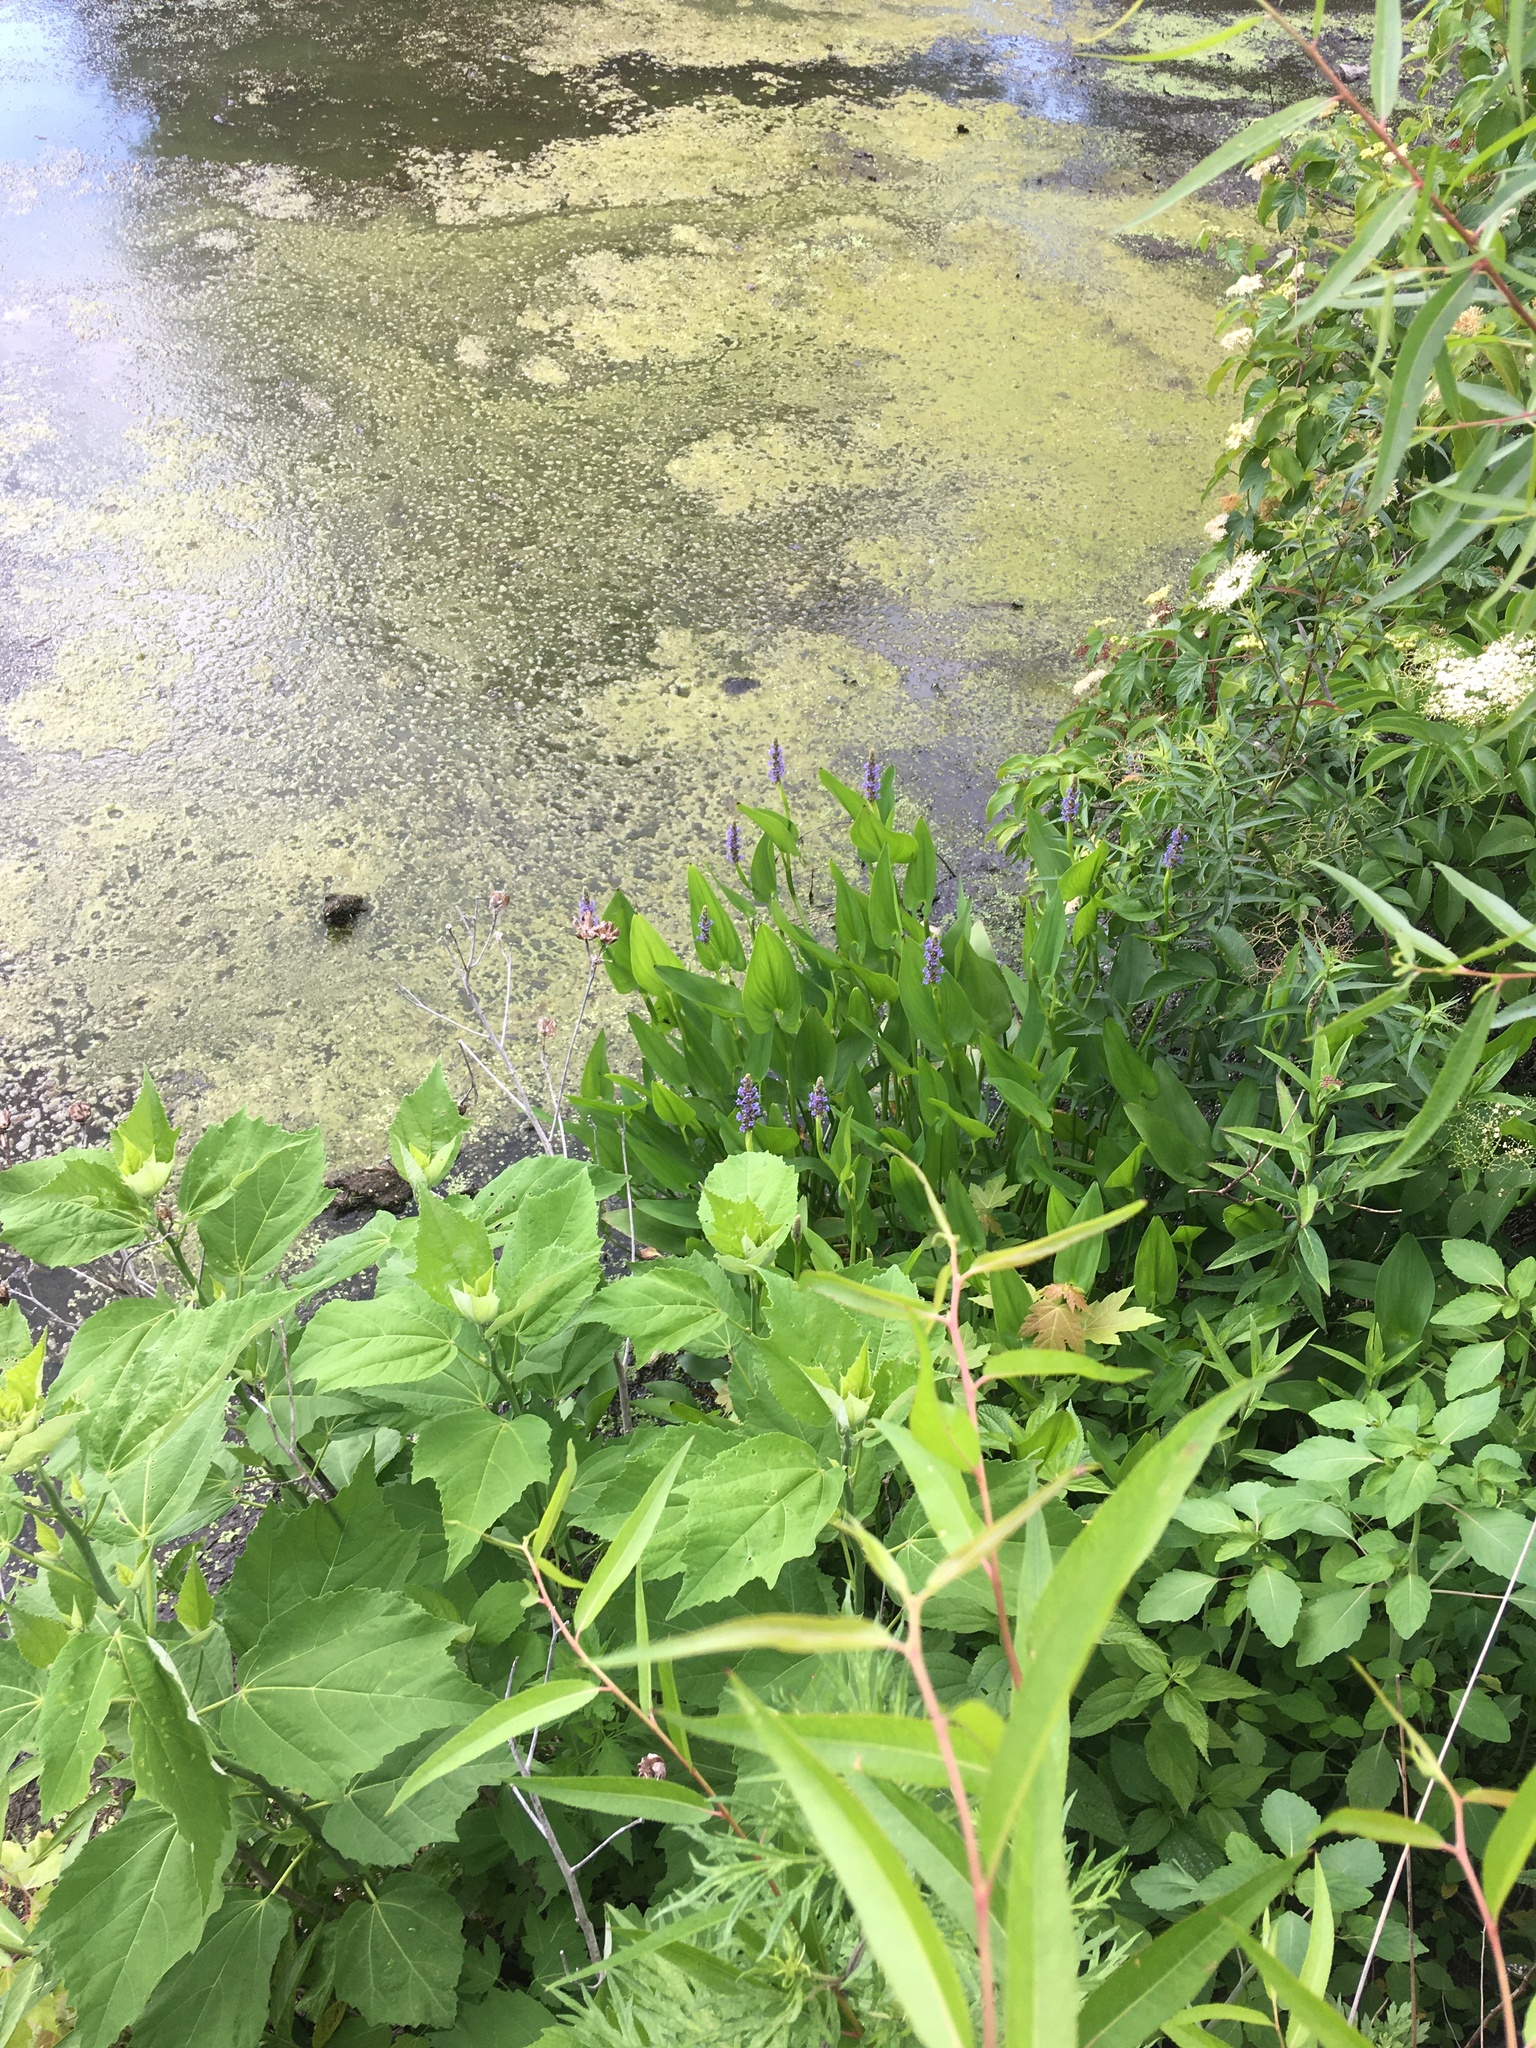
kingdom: Plantae
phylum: Tracheophyta
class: Liliopsida
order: Commelinales
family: Pontederiaceae
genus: Pontederia
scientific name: Pontederia cordata
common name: Pickerelweed
